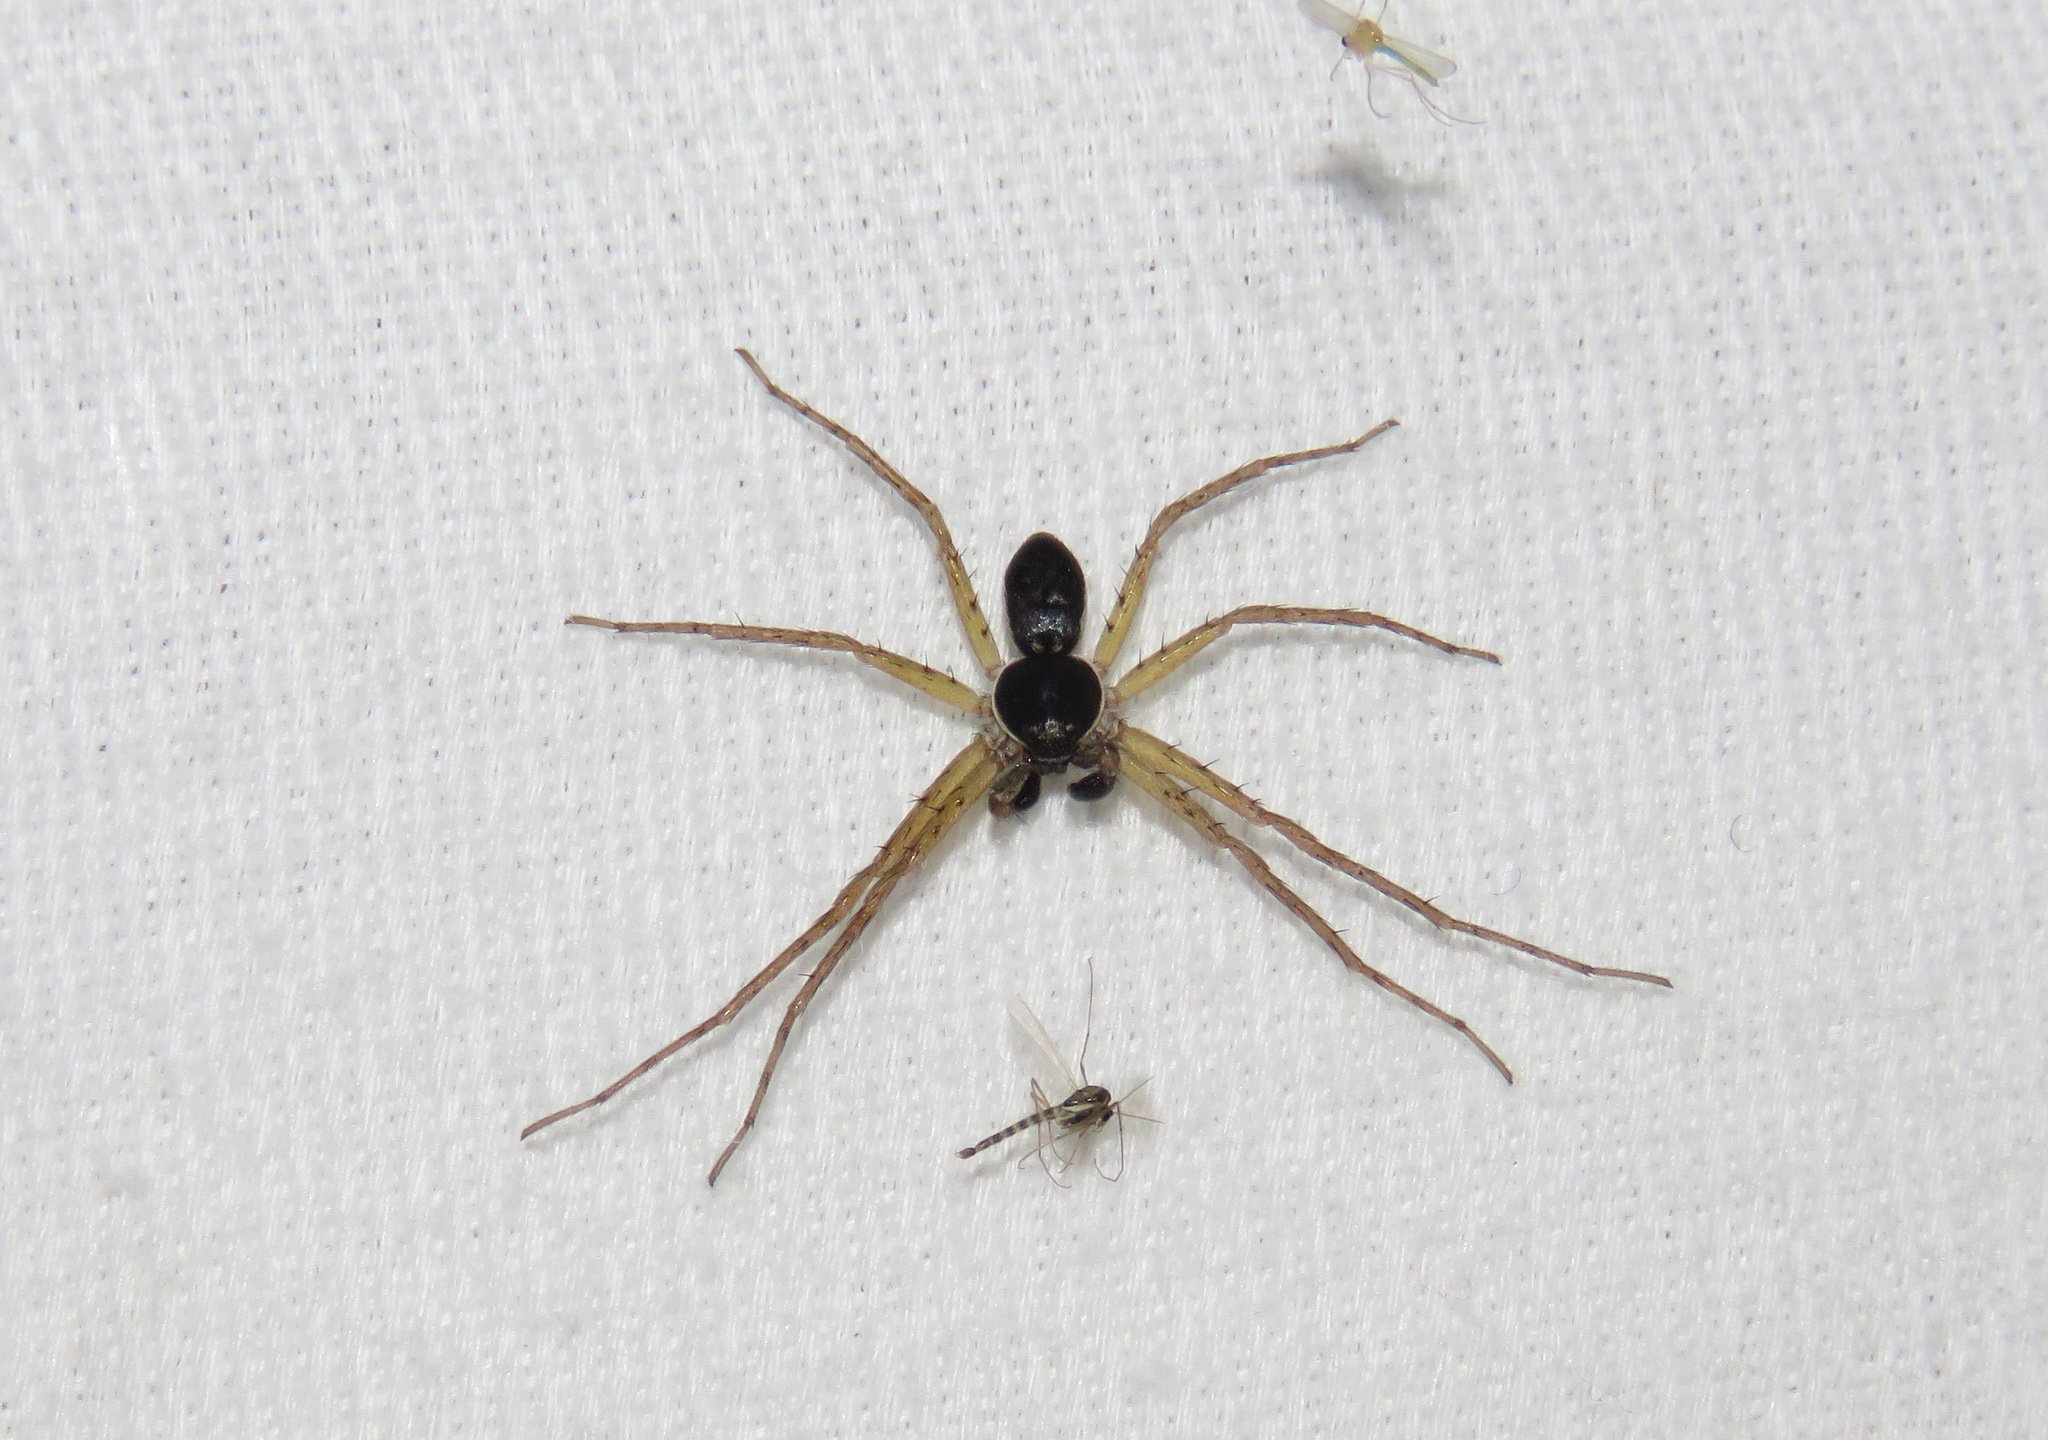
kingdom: Animalia
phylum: Arthropoda
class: Arachnida
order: Araneae
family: Philodromidae
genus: Philodromus
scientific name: Philodromus dispar
